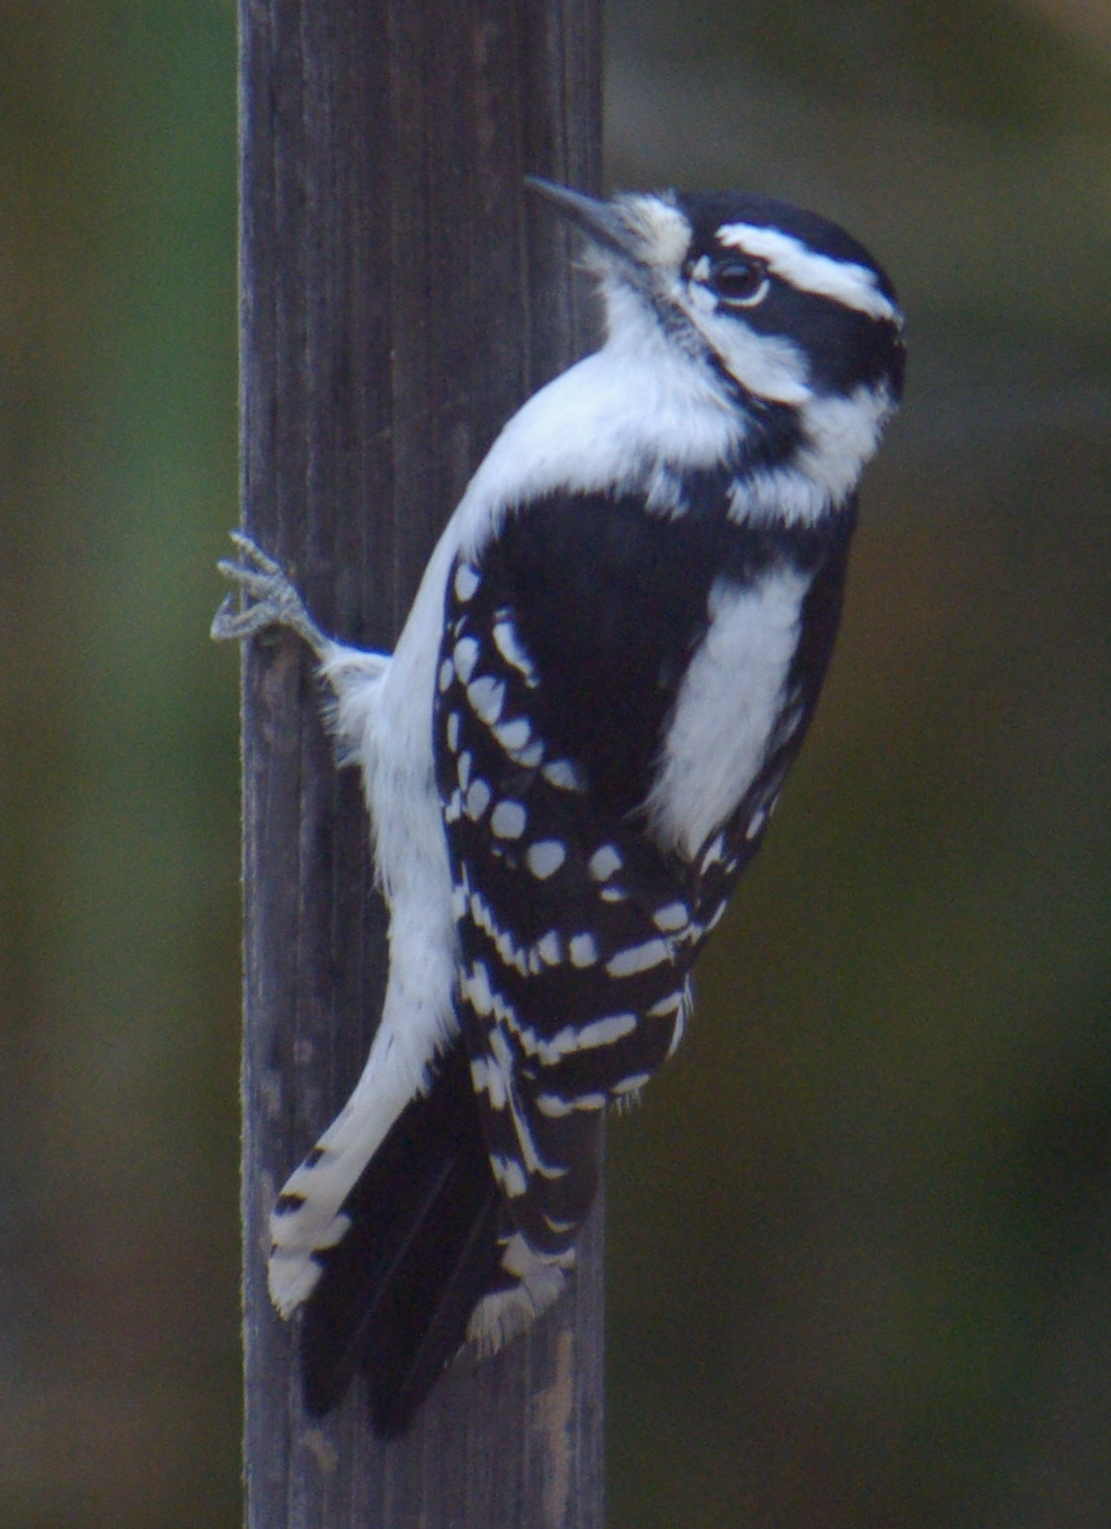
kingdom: Animalia
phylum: Chordata
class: Aves
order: Piciformes
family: Picidae
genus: Dryobates
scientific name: Dryobates pubescens
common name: Downy woodpecker
